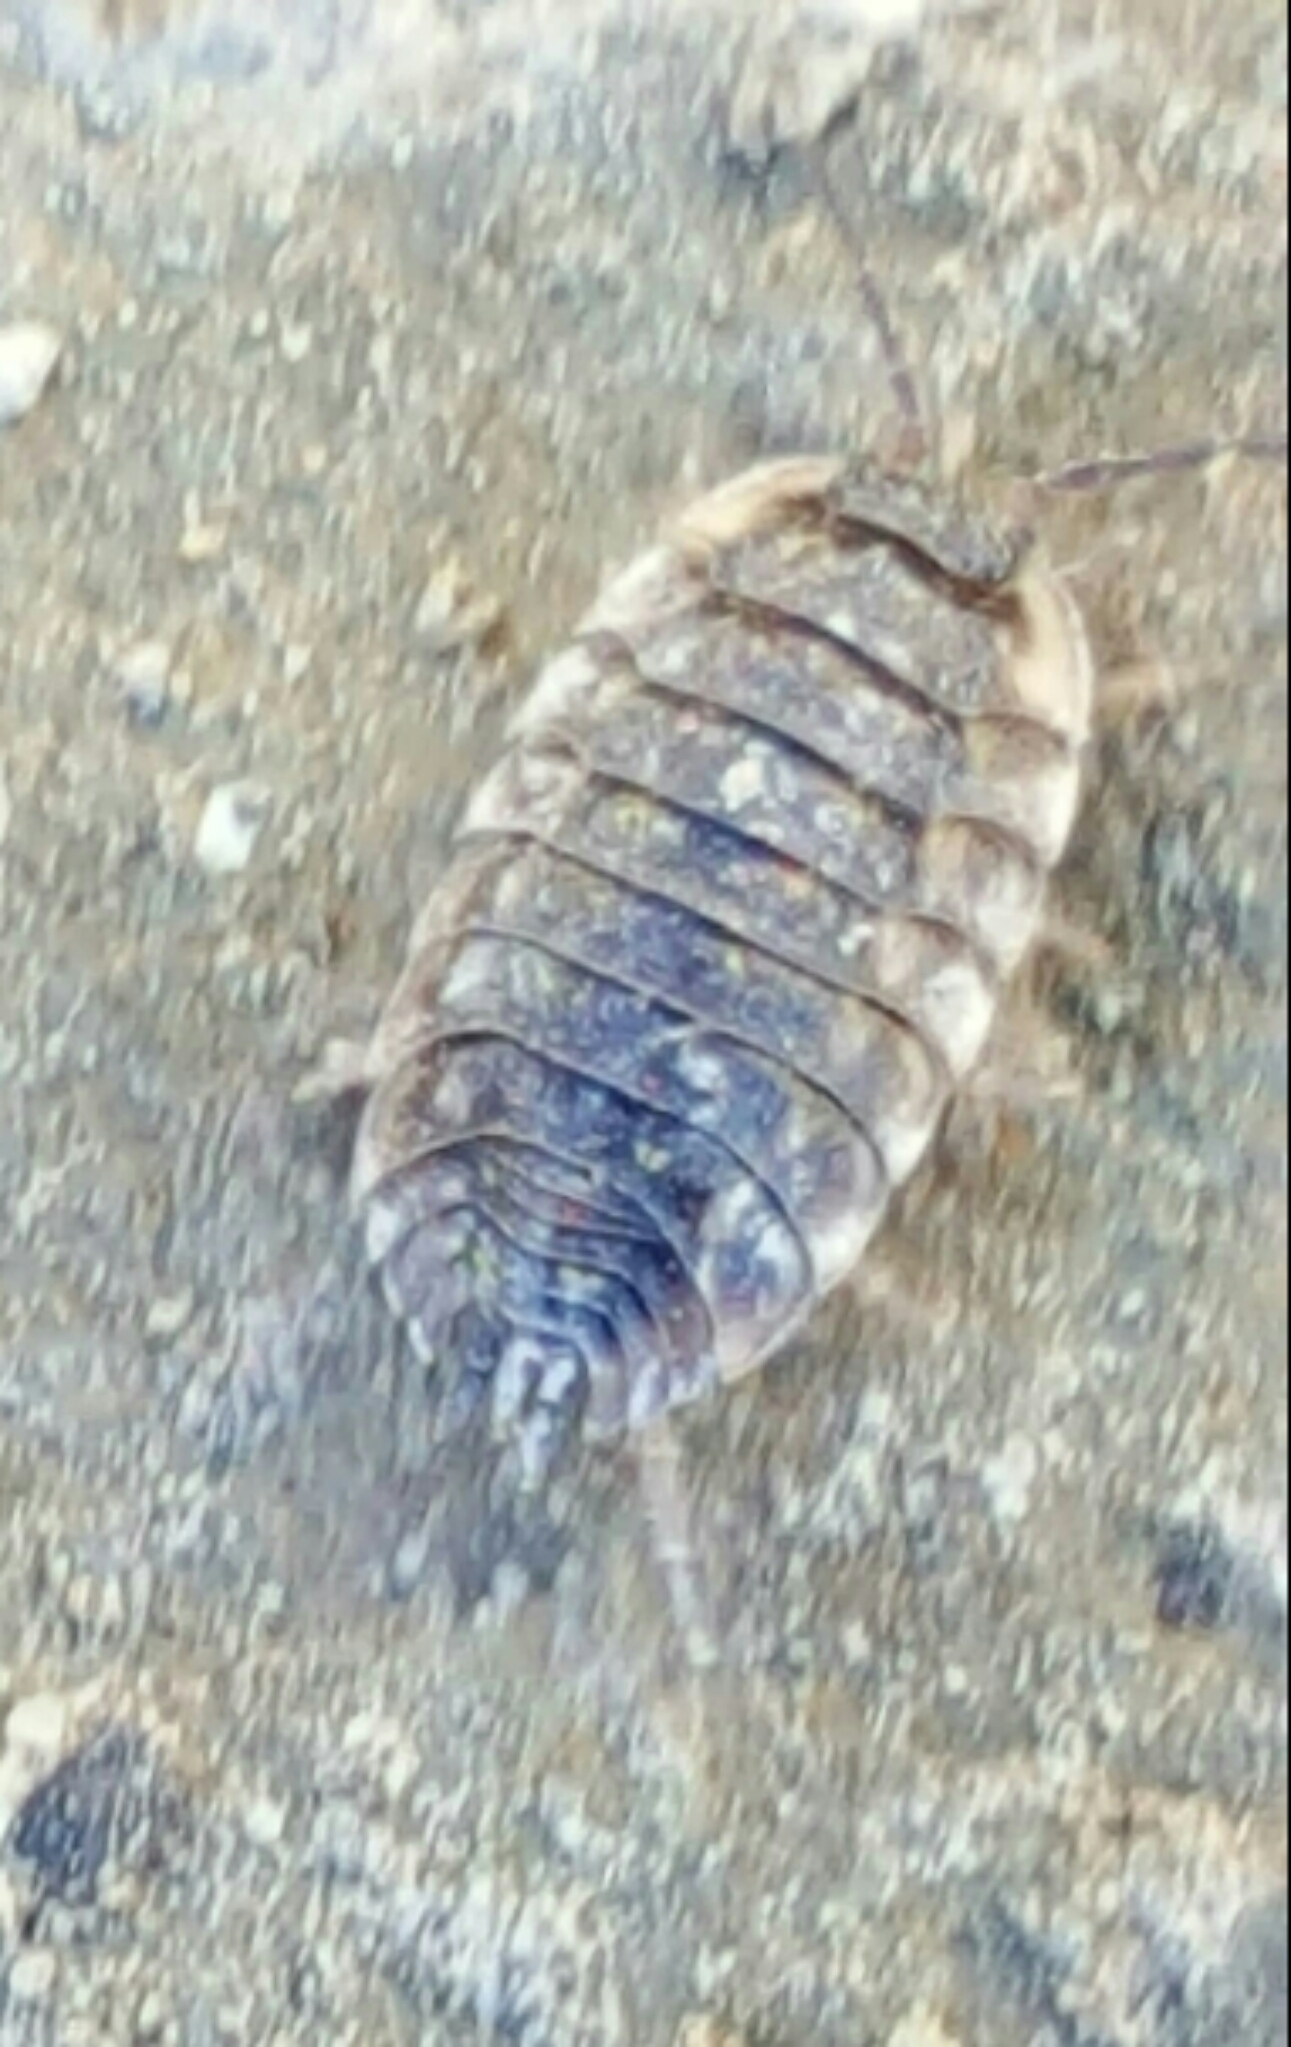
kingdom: Animalia
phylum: Arthropoda
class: Malacostraca
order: Isopoda
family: Oniscidae
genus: Oniscus
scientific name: Oniscus asellus
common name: Common shiny woodlouse
